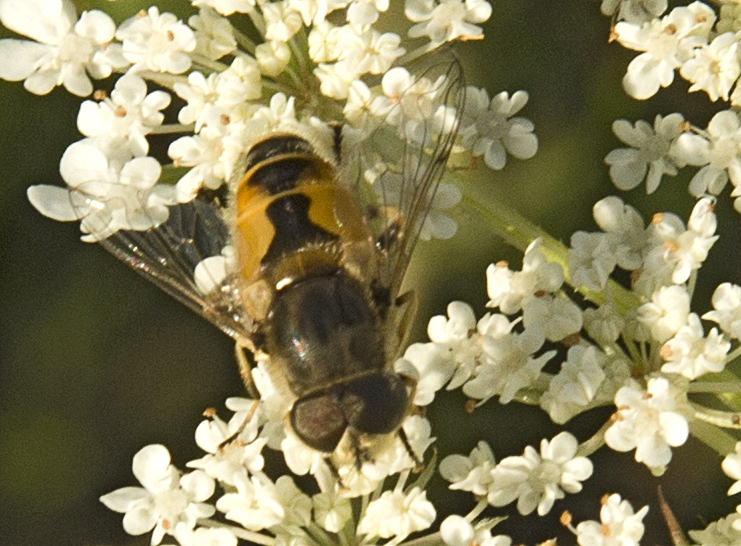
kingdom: Animalia
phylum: Arthropoda
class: Insecta
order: Diptera
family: Syrphidae
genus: Eristalis
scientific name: Eristalis arbustorum
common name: Hover fly
